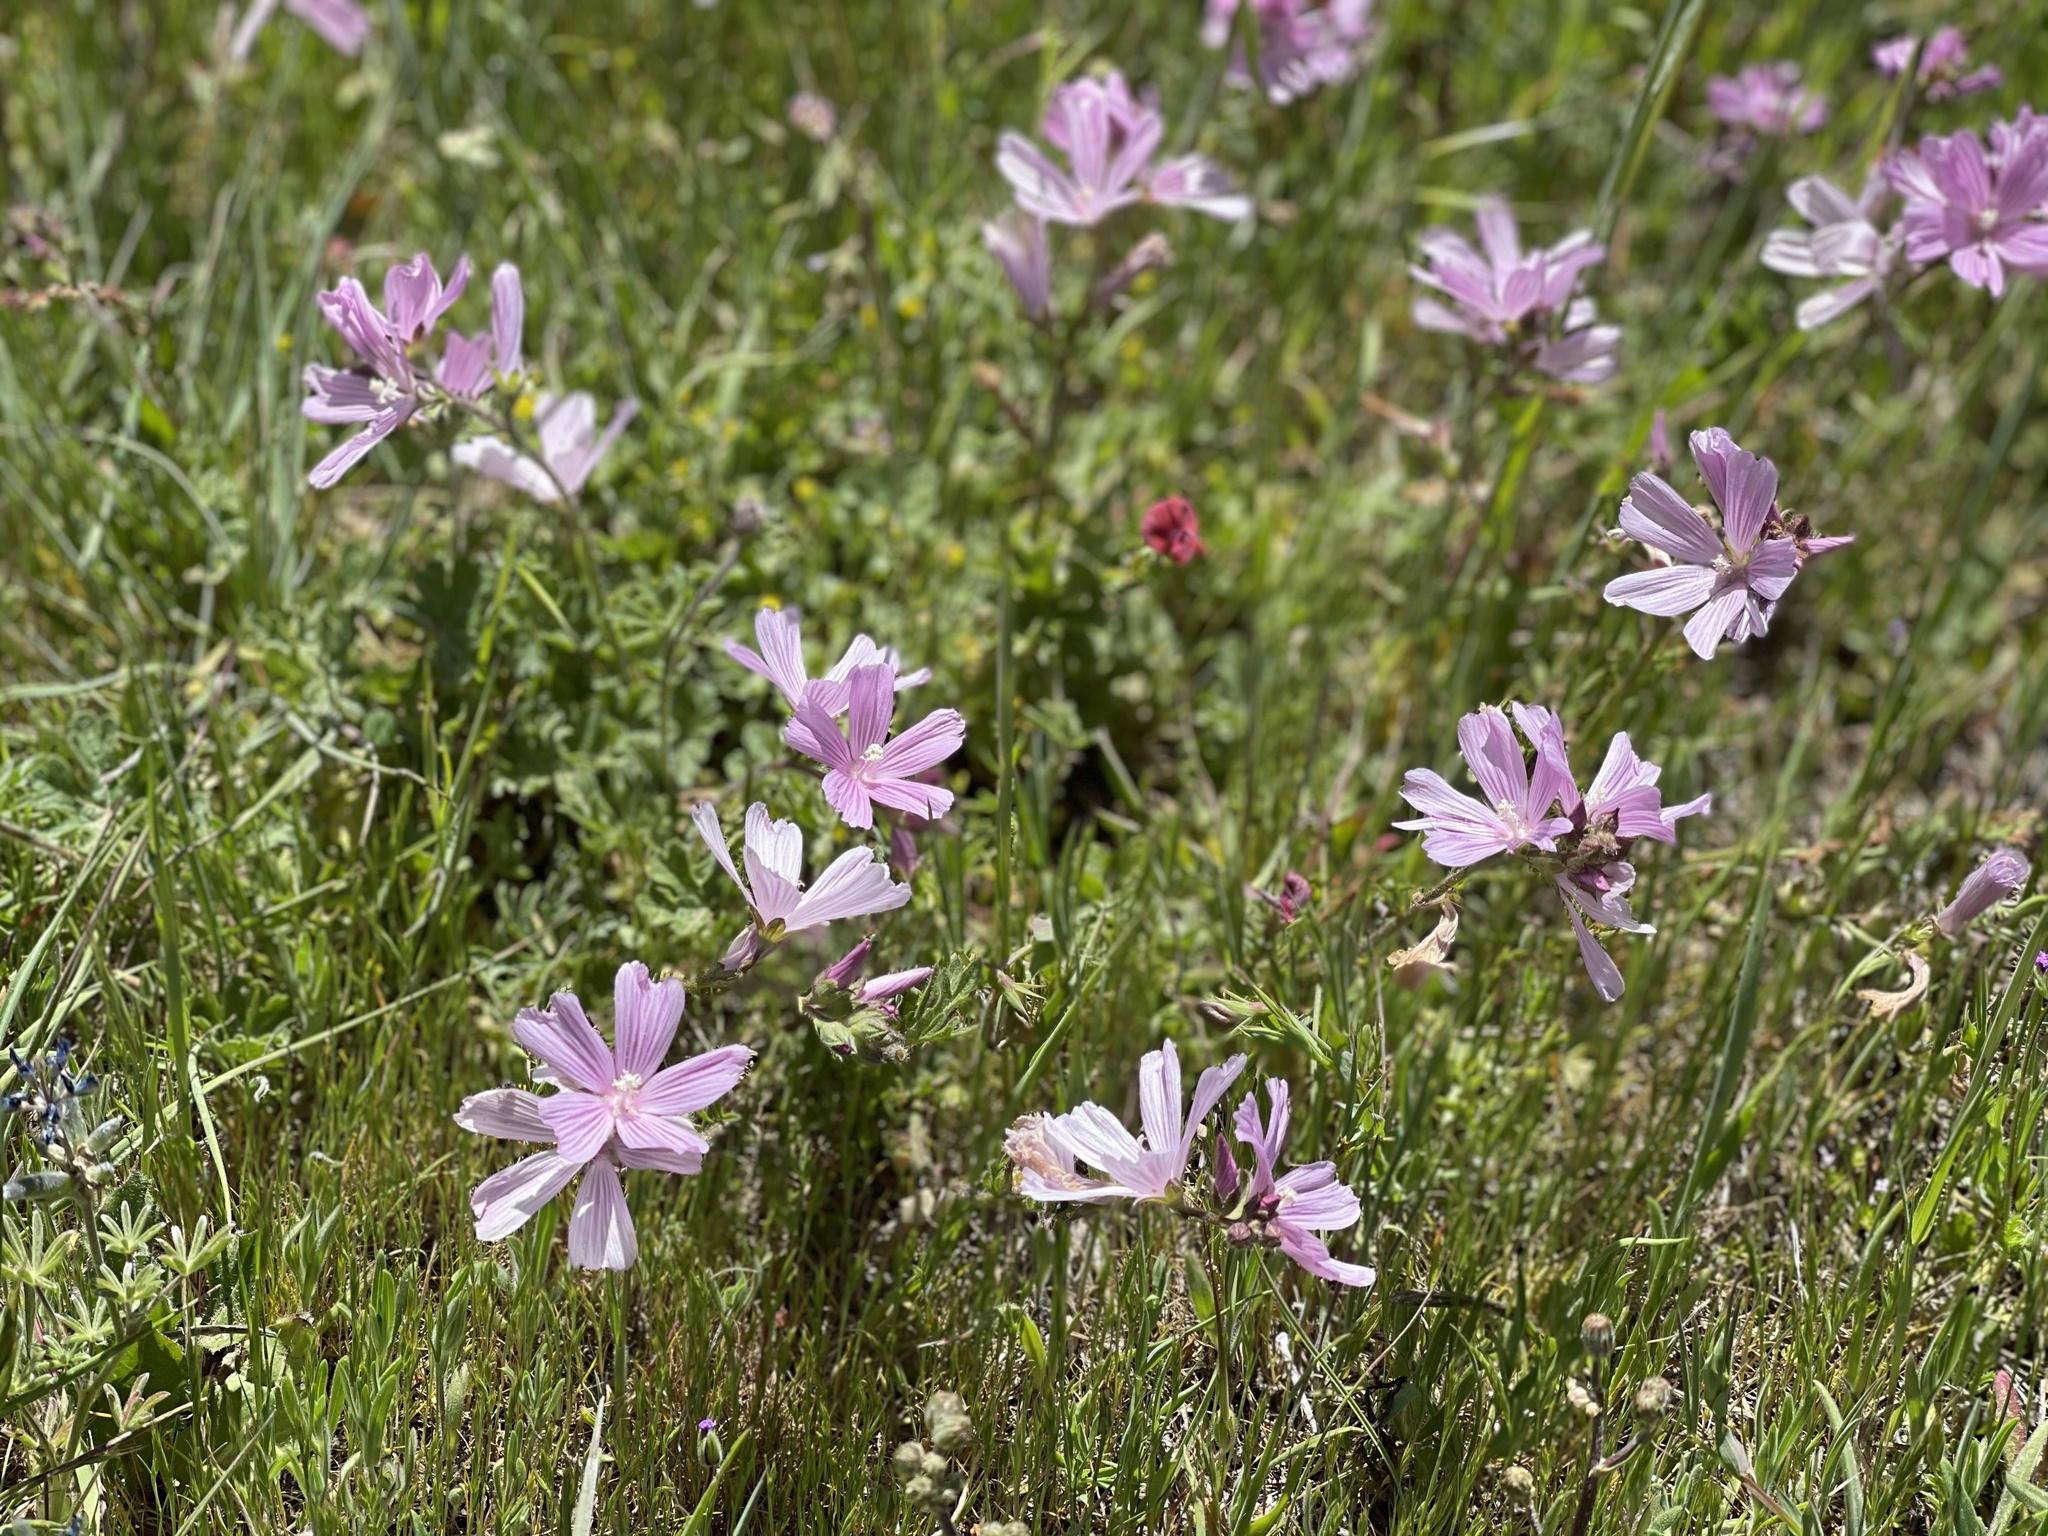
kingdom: Plantae
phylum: Tracheophyta
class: Magnoliopsida
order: Malvales
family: Malvaceae
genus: Sidalcea
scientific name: Sidalcea malviflora
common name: Greek mallow
